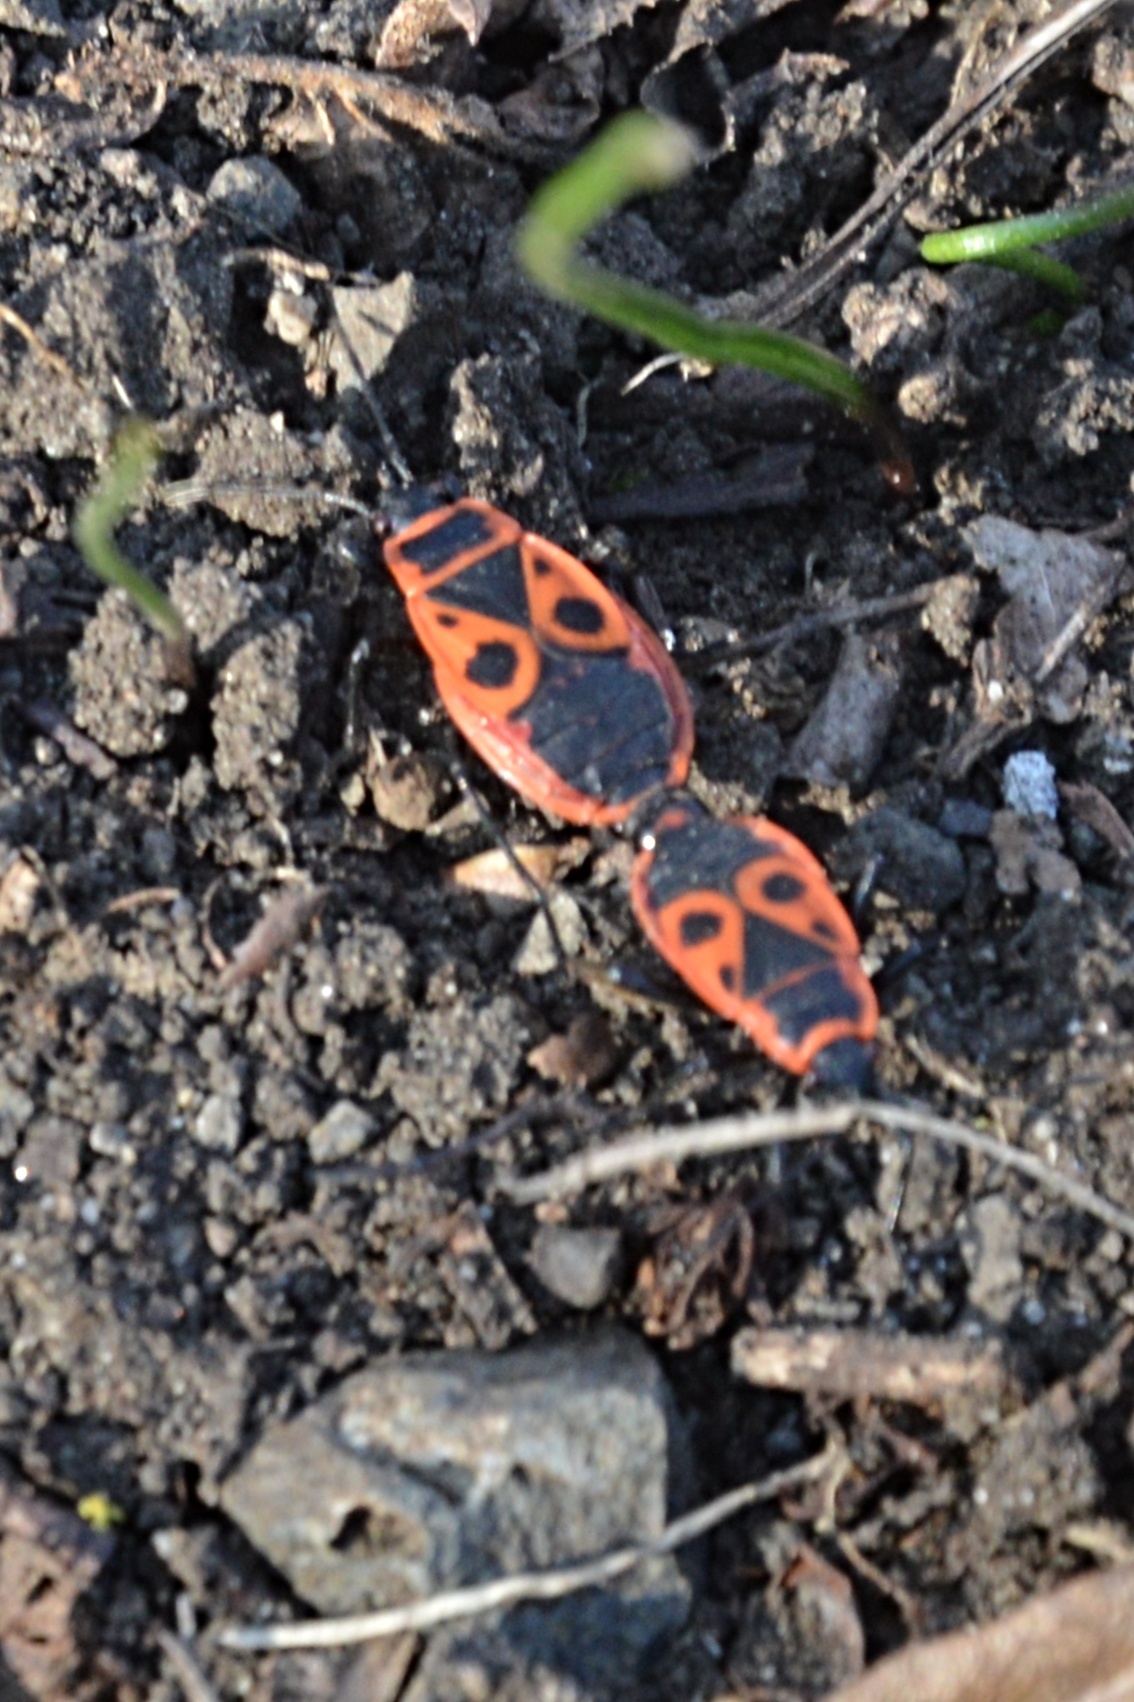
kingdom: Animalia
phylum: Arthropoda
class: Insecta
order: Hemiptera
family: Pyrrhocoridae
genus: Pyrrhocoris
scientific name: Pyrrhocoris apterus
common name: Firebug
